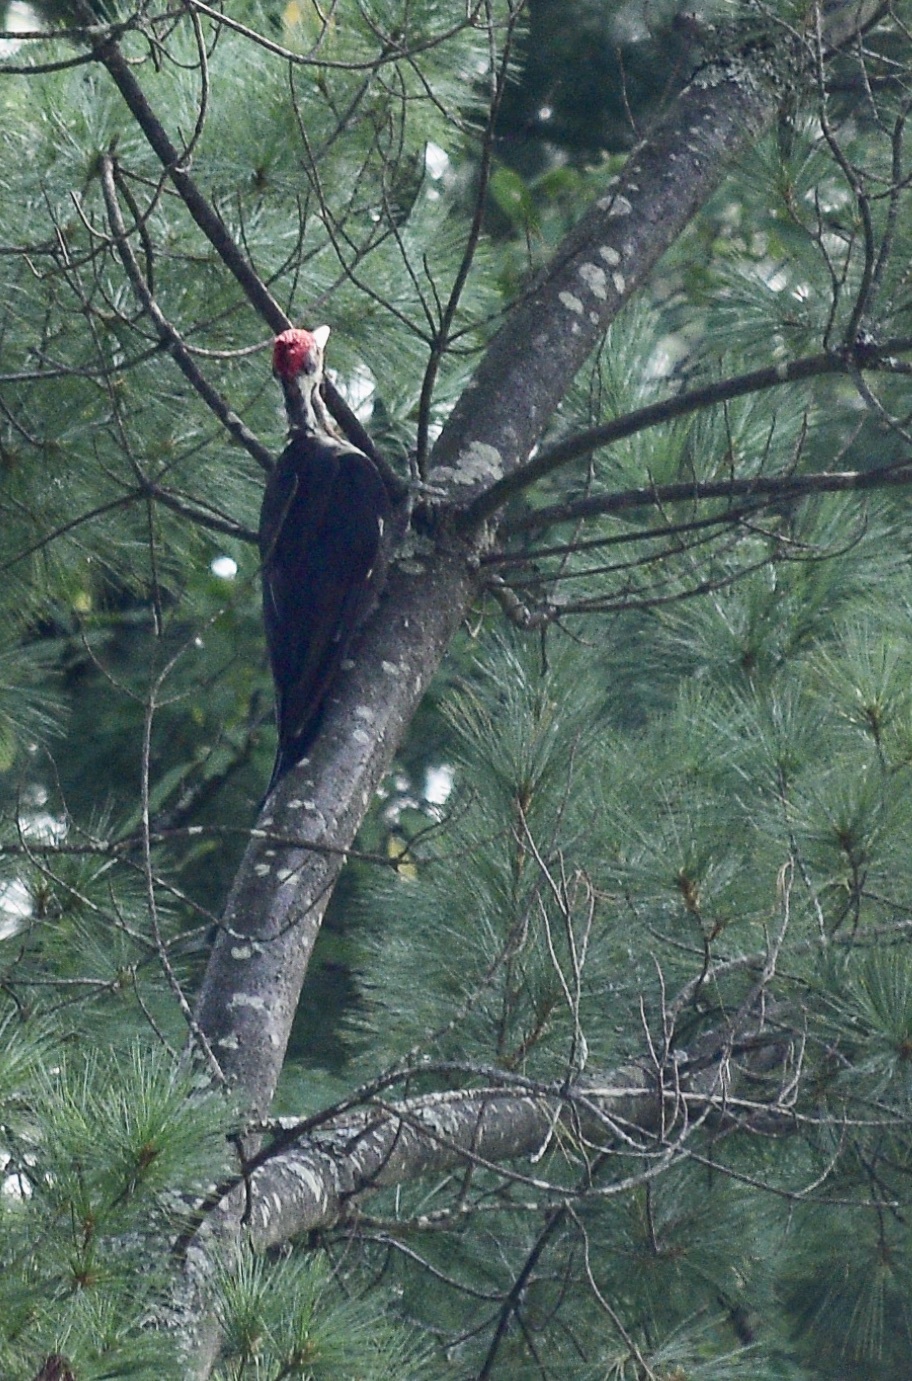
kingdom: Animalia
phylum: Chordata
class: Aves
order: Piciformes
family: Picidae
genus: Dryocopus
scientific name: Dryocopus pileatus
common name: Pileated woodpecker
